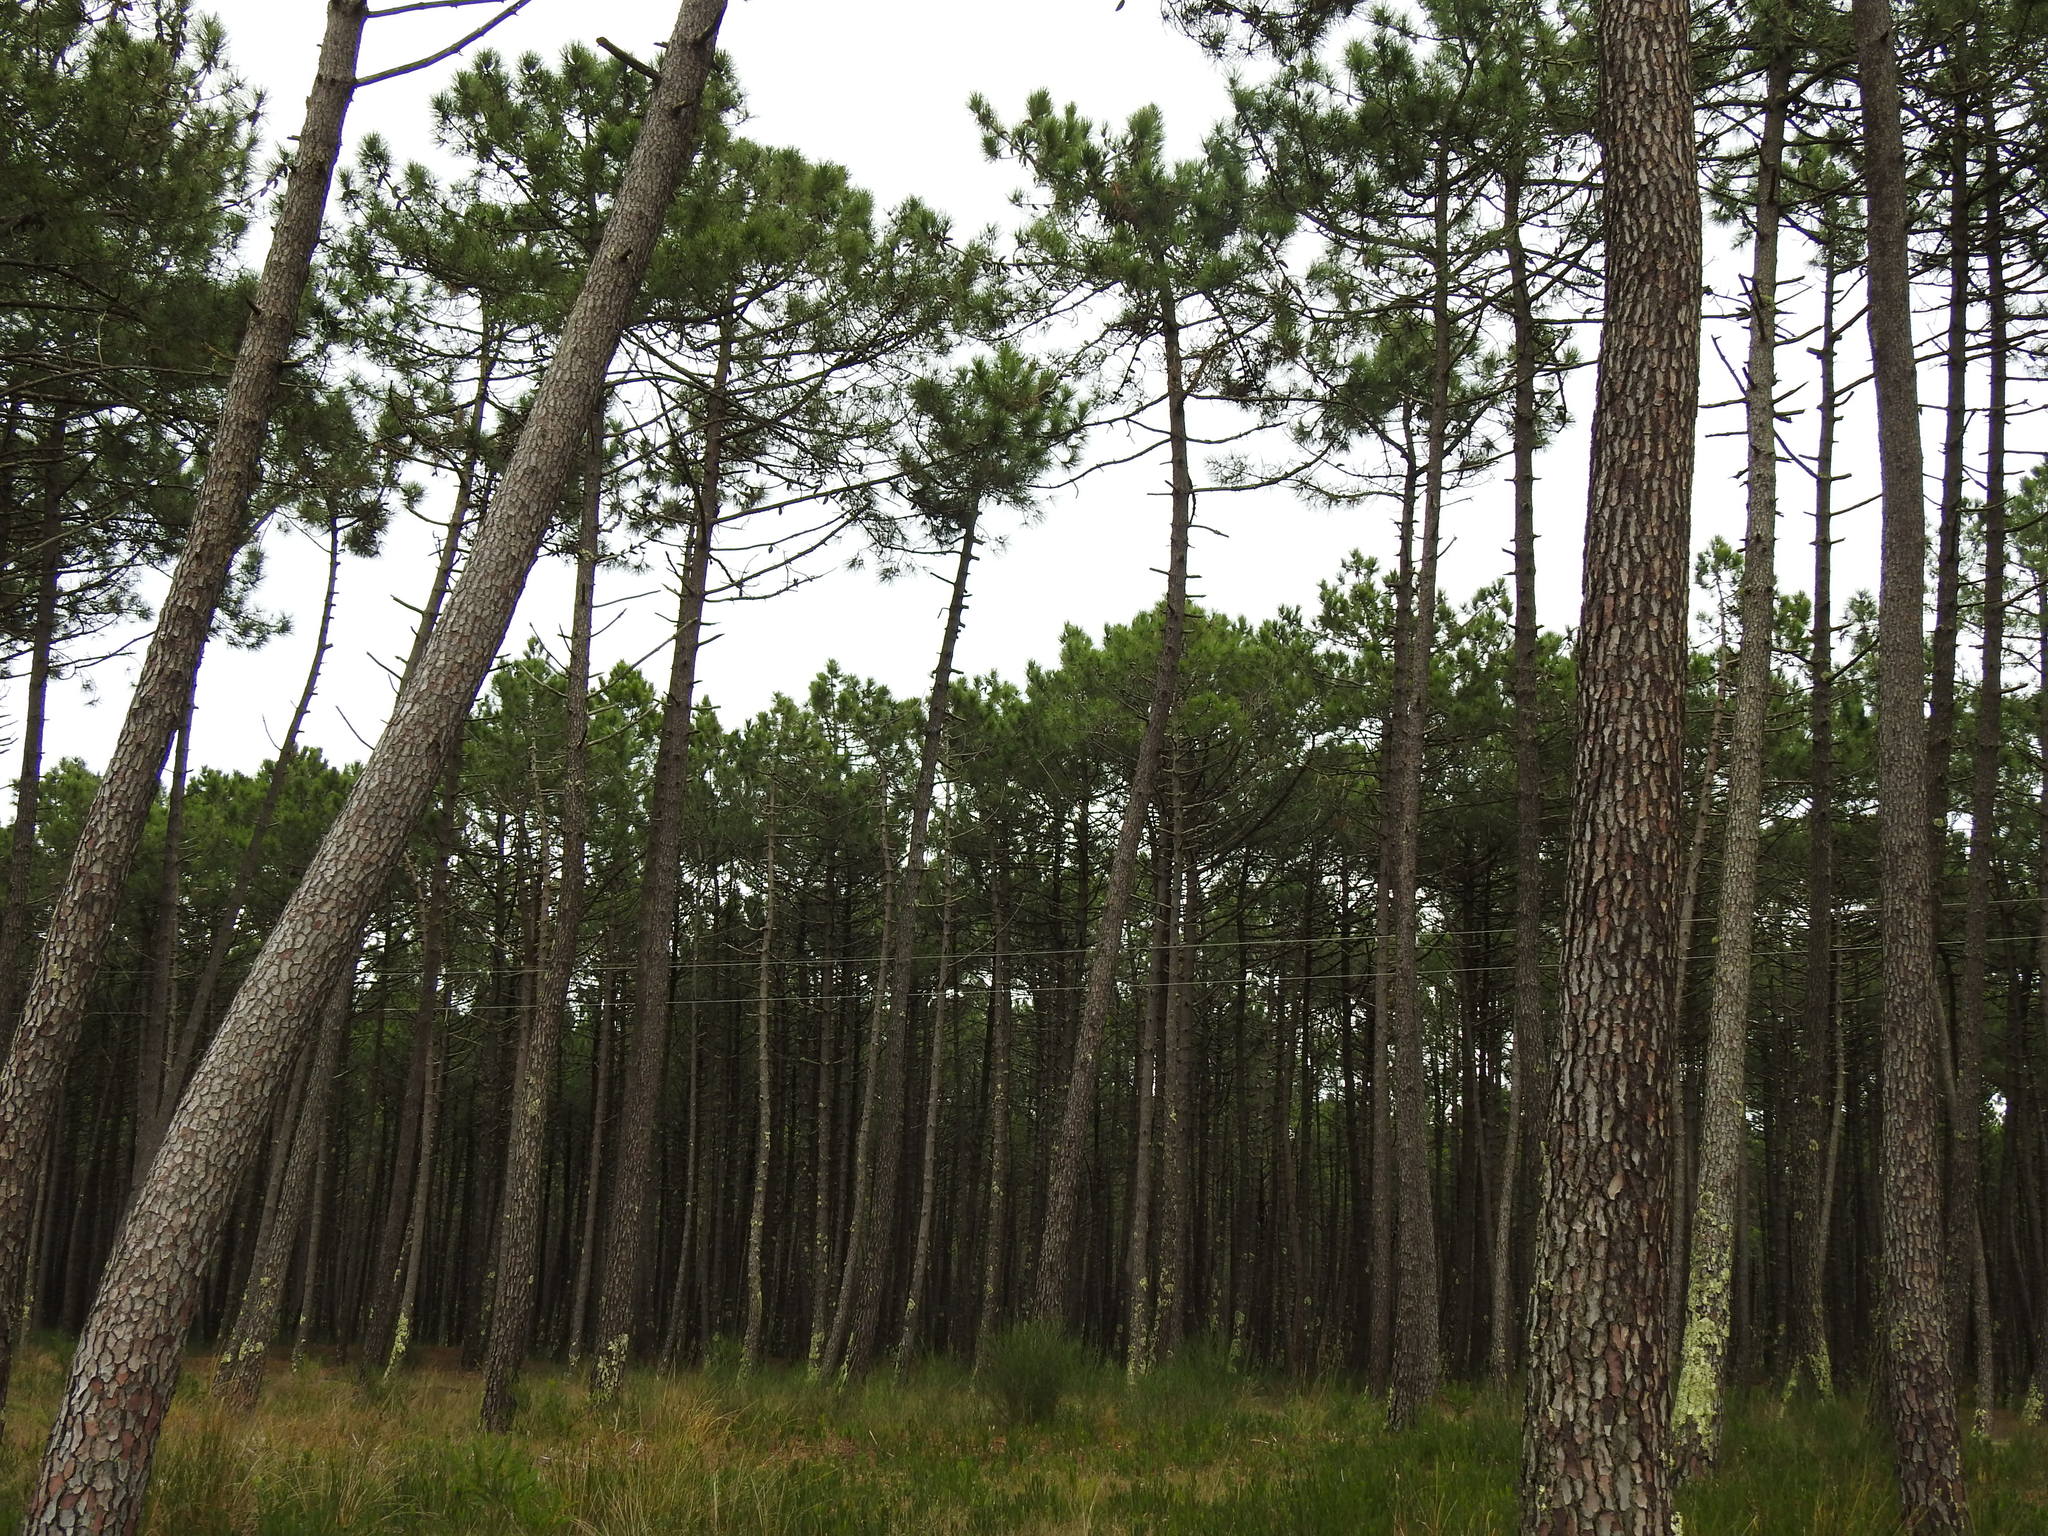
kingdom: Plantae
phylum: Tracheophyta
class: Pinopsida
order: Pinales
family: Pinaceae
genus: Pinus
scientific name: Pinus pinaster
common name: Maritime pine
